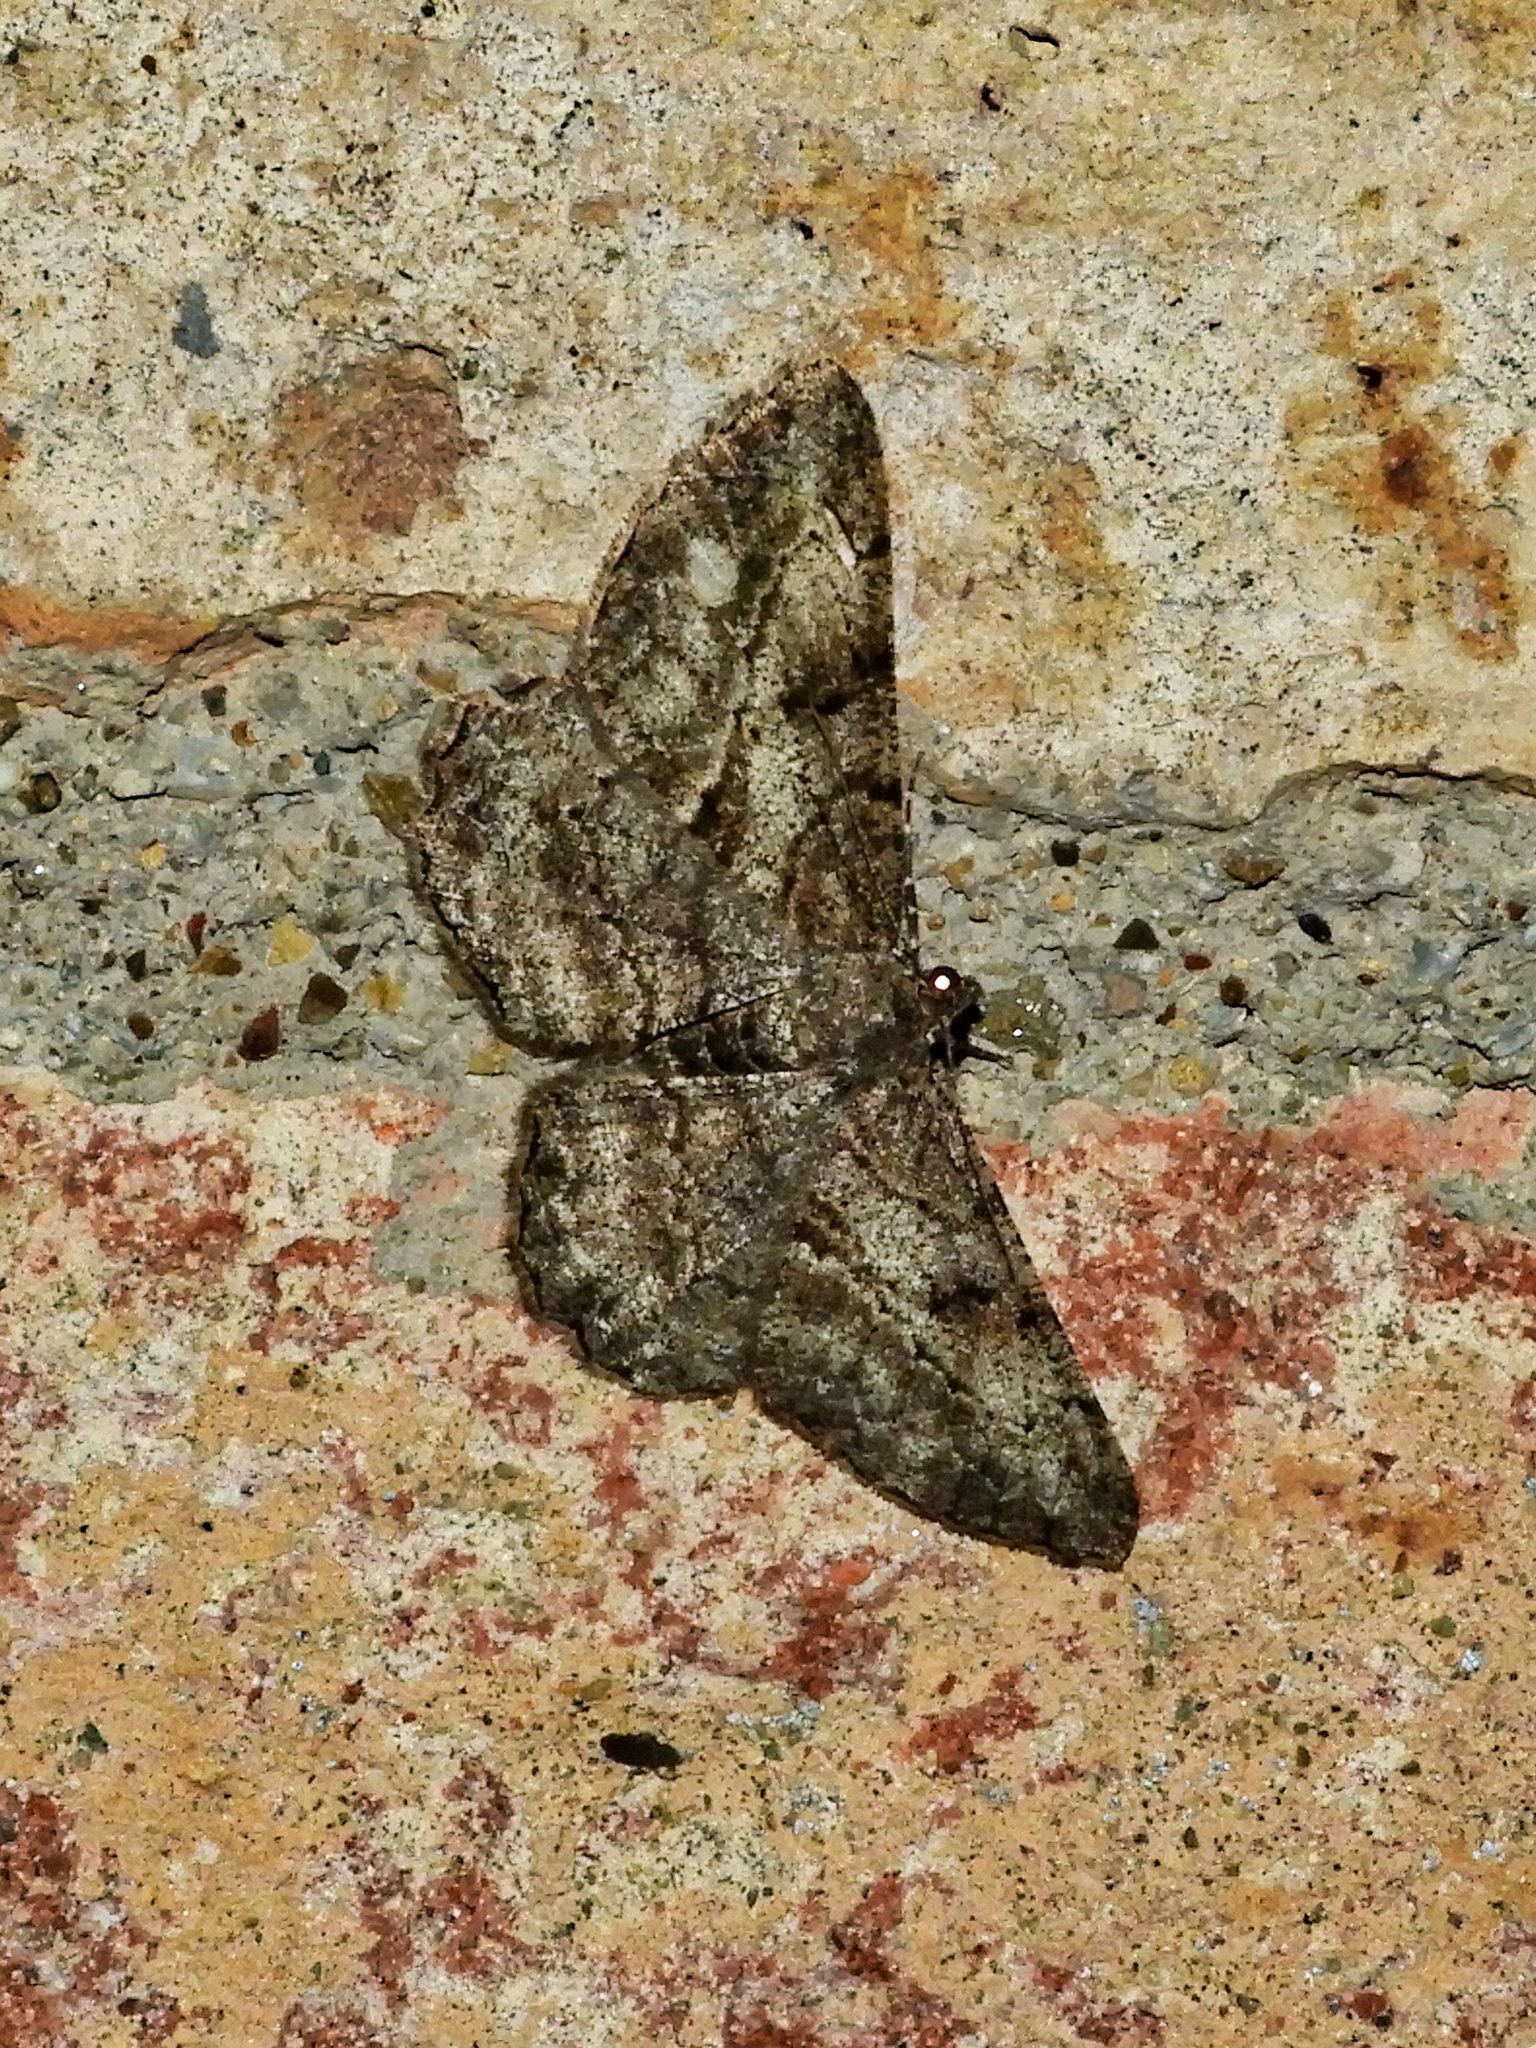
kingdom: Animalia
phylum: Arthropoda
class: Insecta
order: Lepidoptera
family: Geometridae
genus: Peribatodes
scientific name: Peribatodes rhomboidaria
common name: Willow beauty
